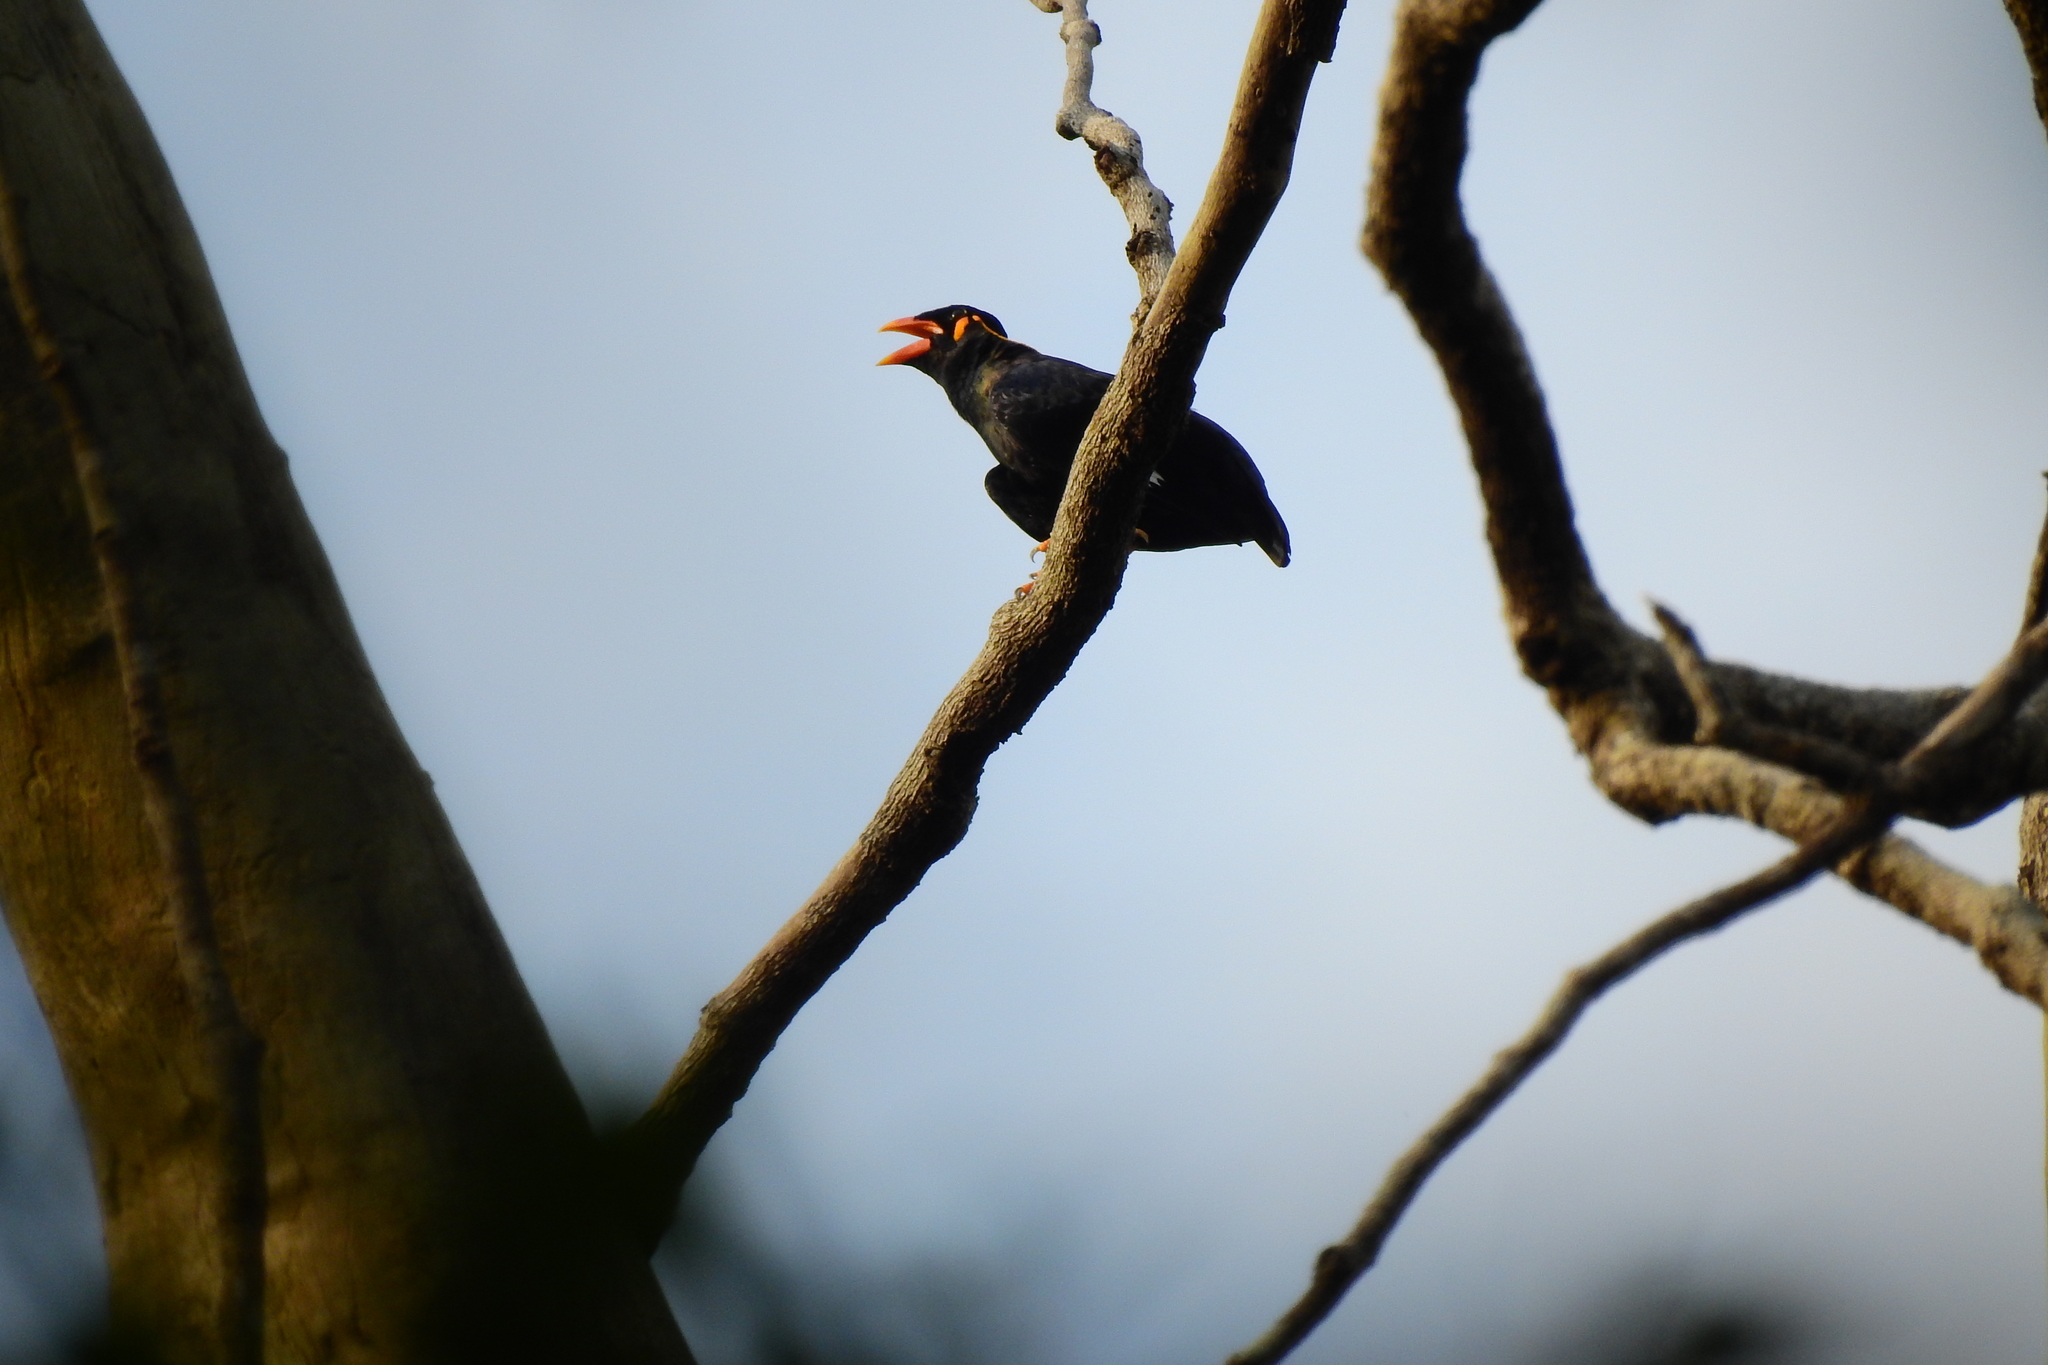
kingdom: Animalia
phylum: Chordata
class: Aves
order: Passeriformes
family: Sturnidae
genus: Gracula
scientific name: Gracula religiosa
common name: Common hill myna
